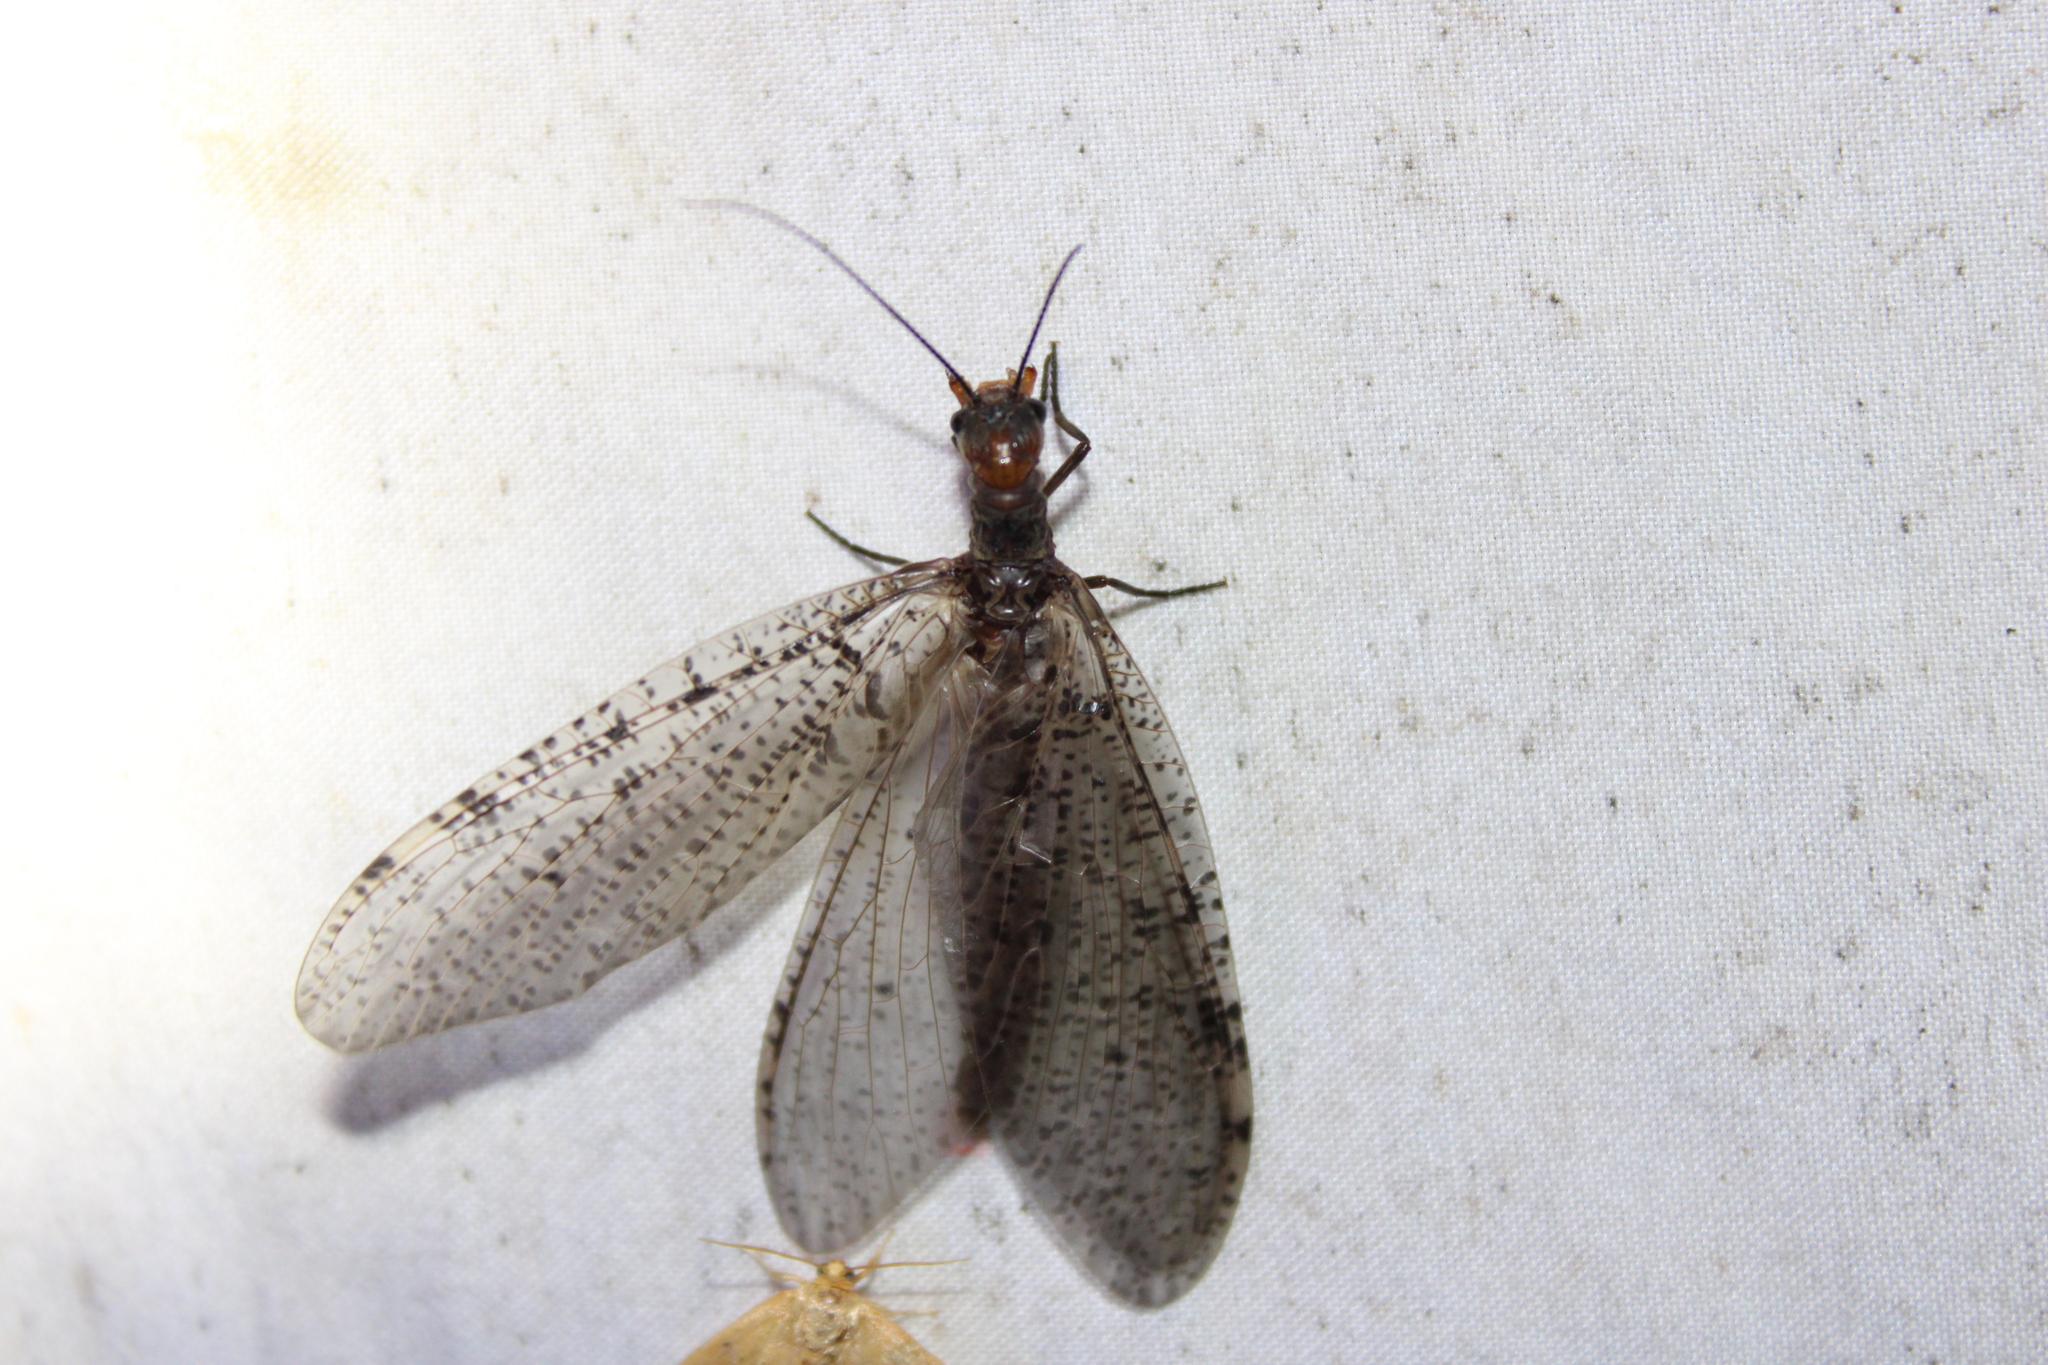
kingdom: Animalia
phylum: Arthropoda
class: Insecta
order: Megaloptera
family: Corydalidae
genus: Neohermes
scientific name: Neohermes concolor
